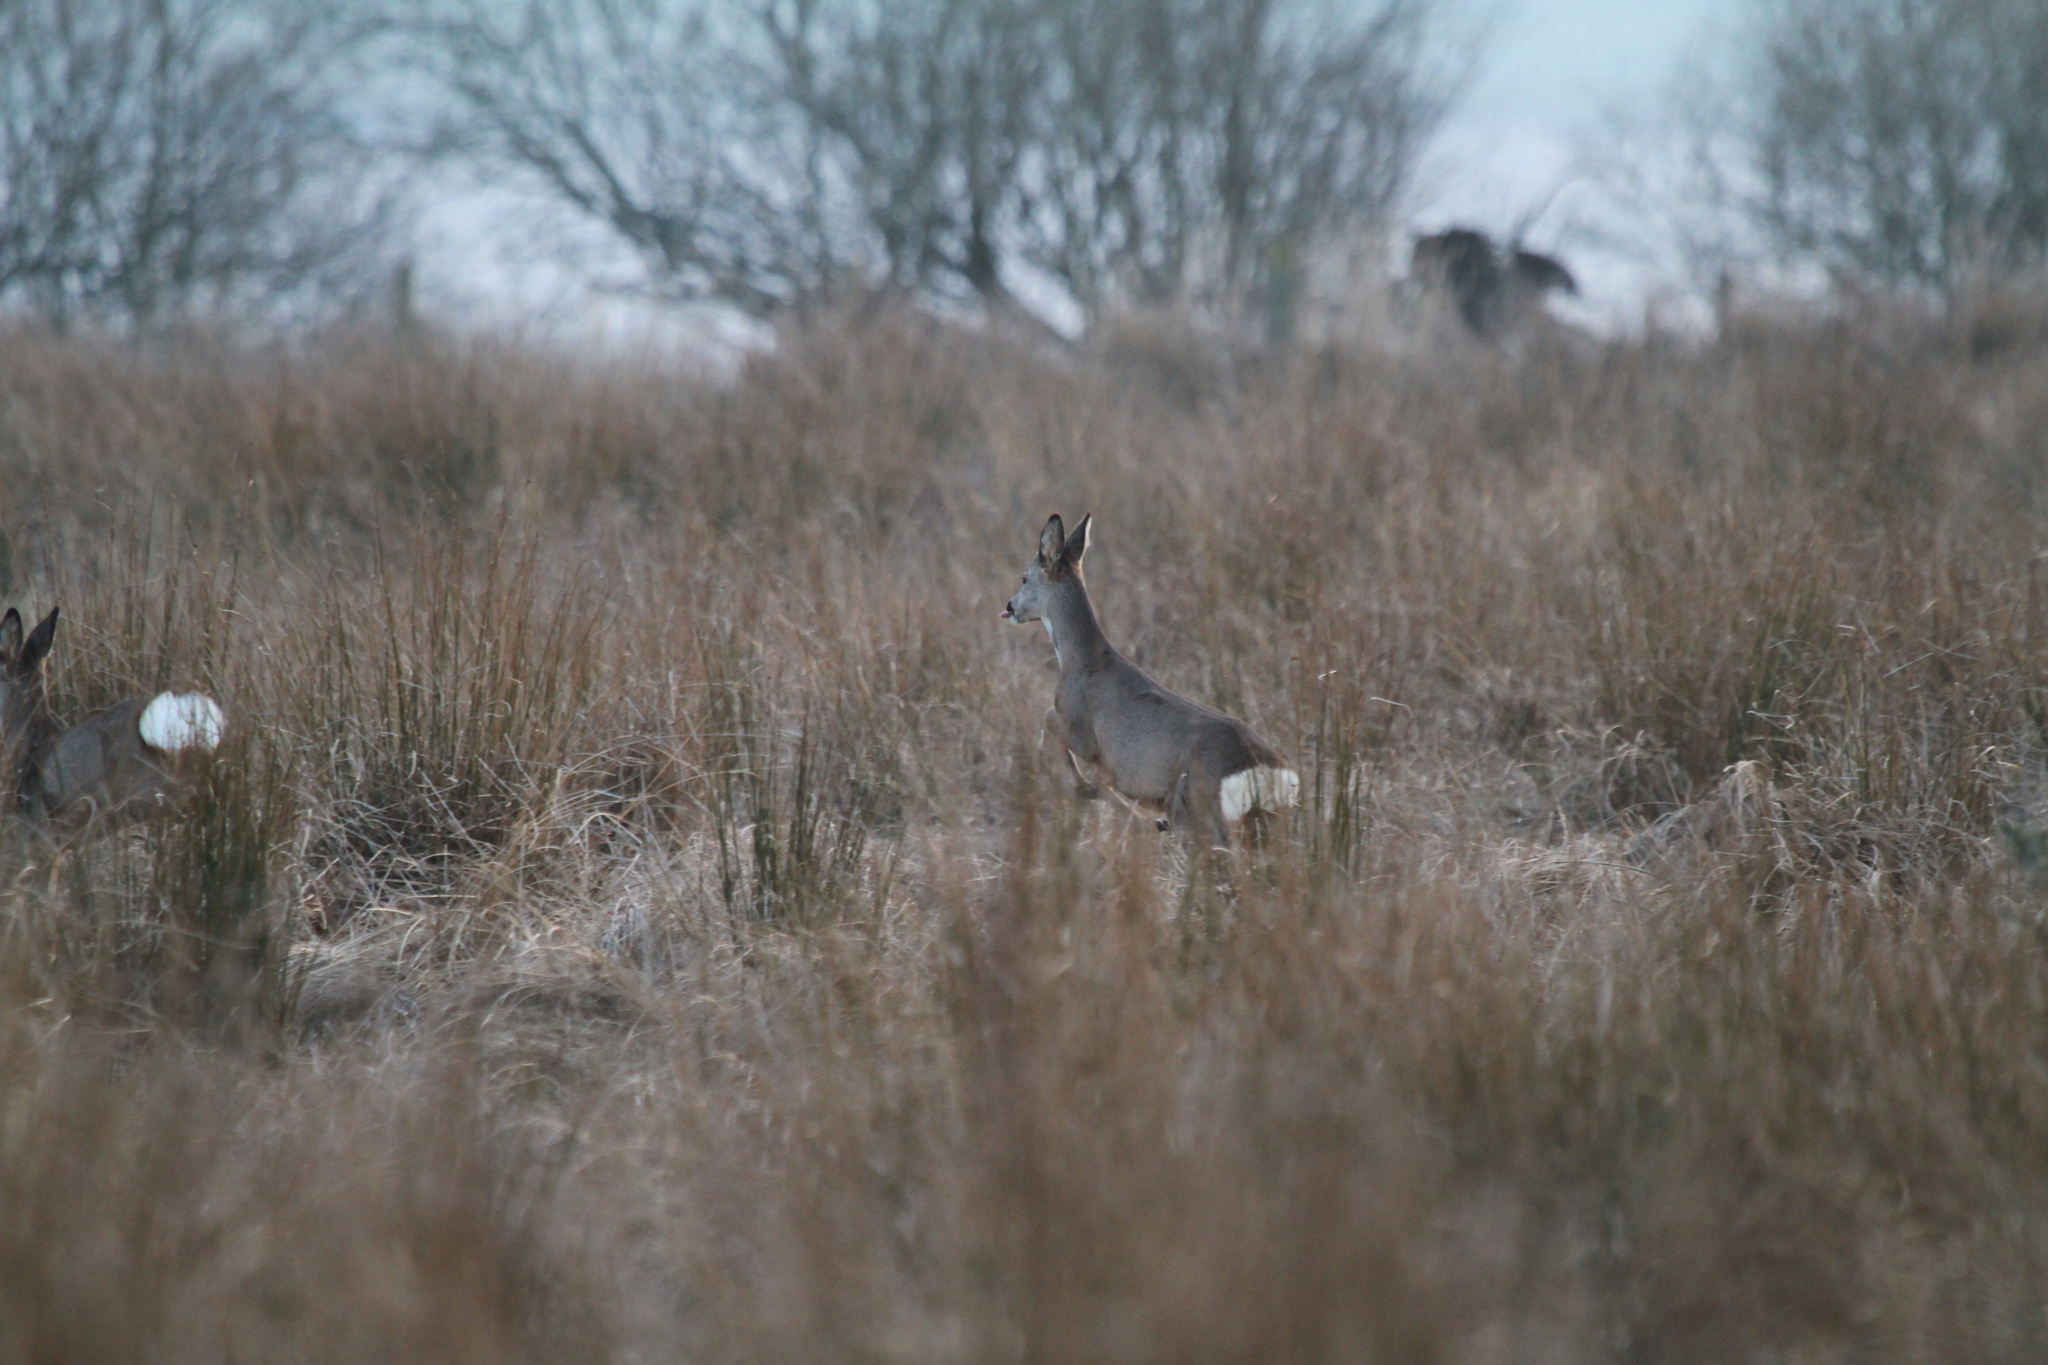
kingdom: Animalia
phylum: Chordata
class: Mammalia
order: Artiodactyla
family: Cervidae
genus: Capreolus
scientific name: Capreolus capreolus
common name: Western roe deer
